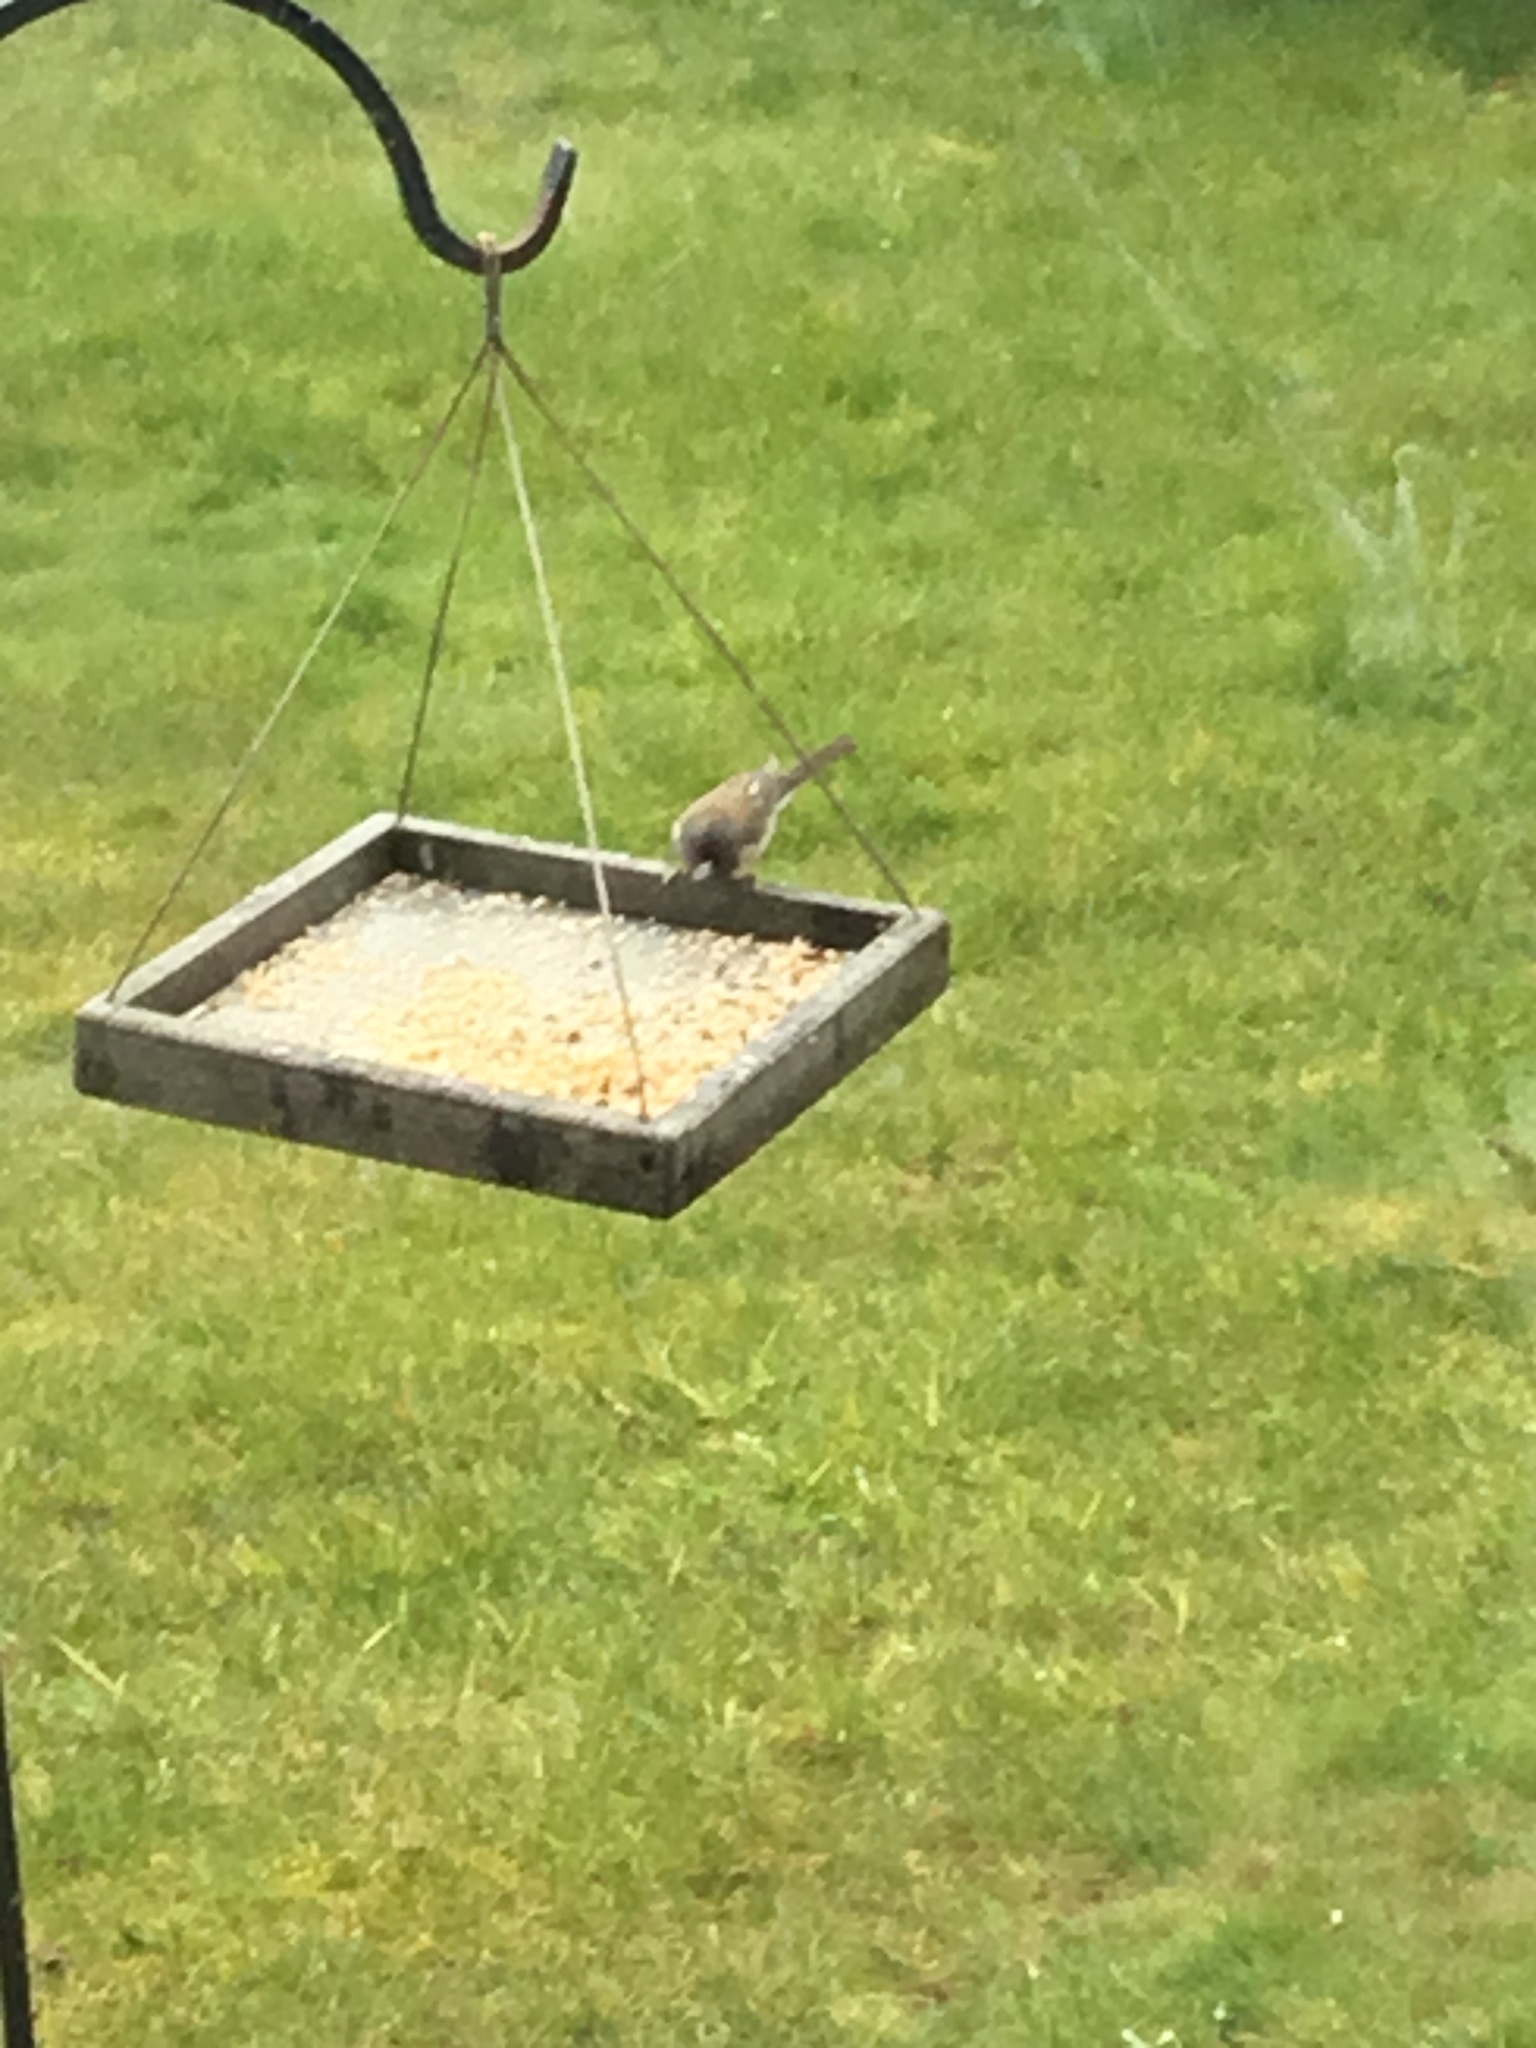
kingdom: Animalia
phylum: Chordata
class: Aves
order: Passeriformes
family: Passerellidae
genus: Junco
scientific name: Junco hyemalis
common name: Dark-eyed junco
